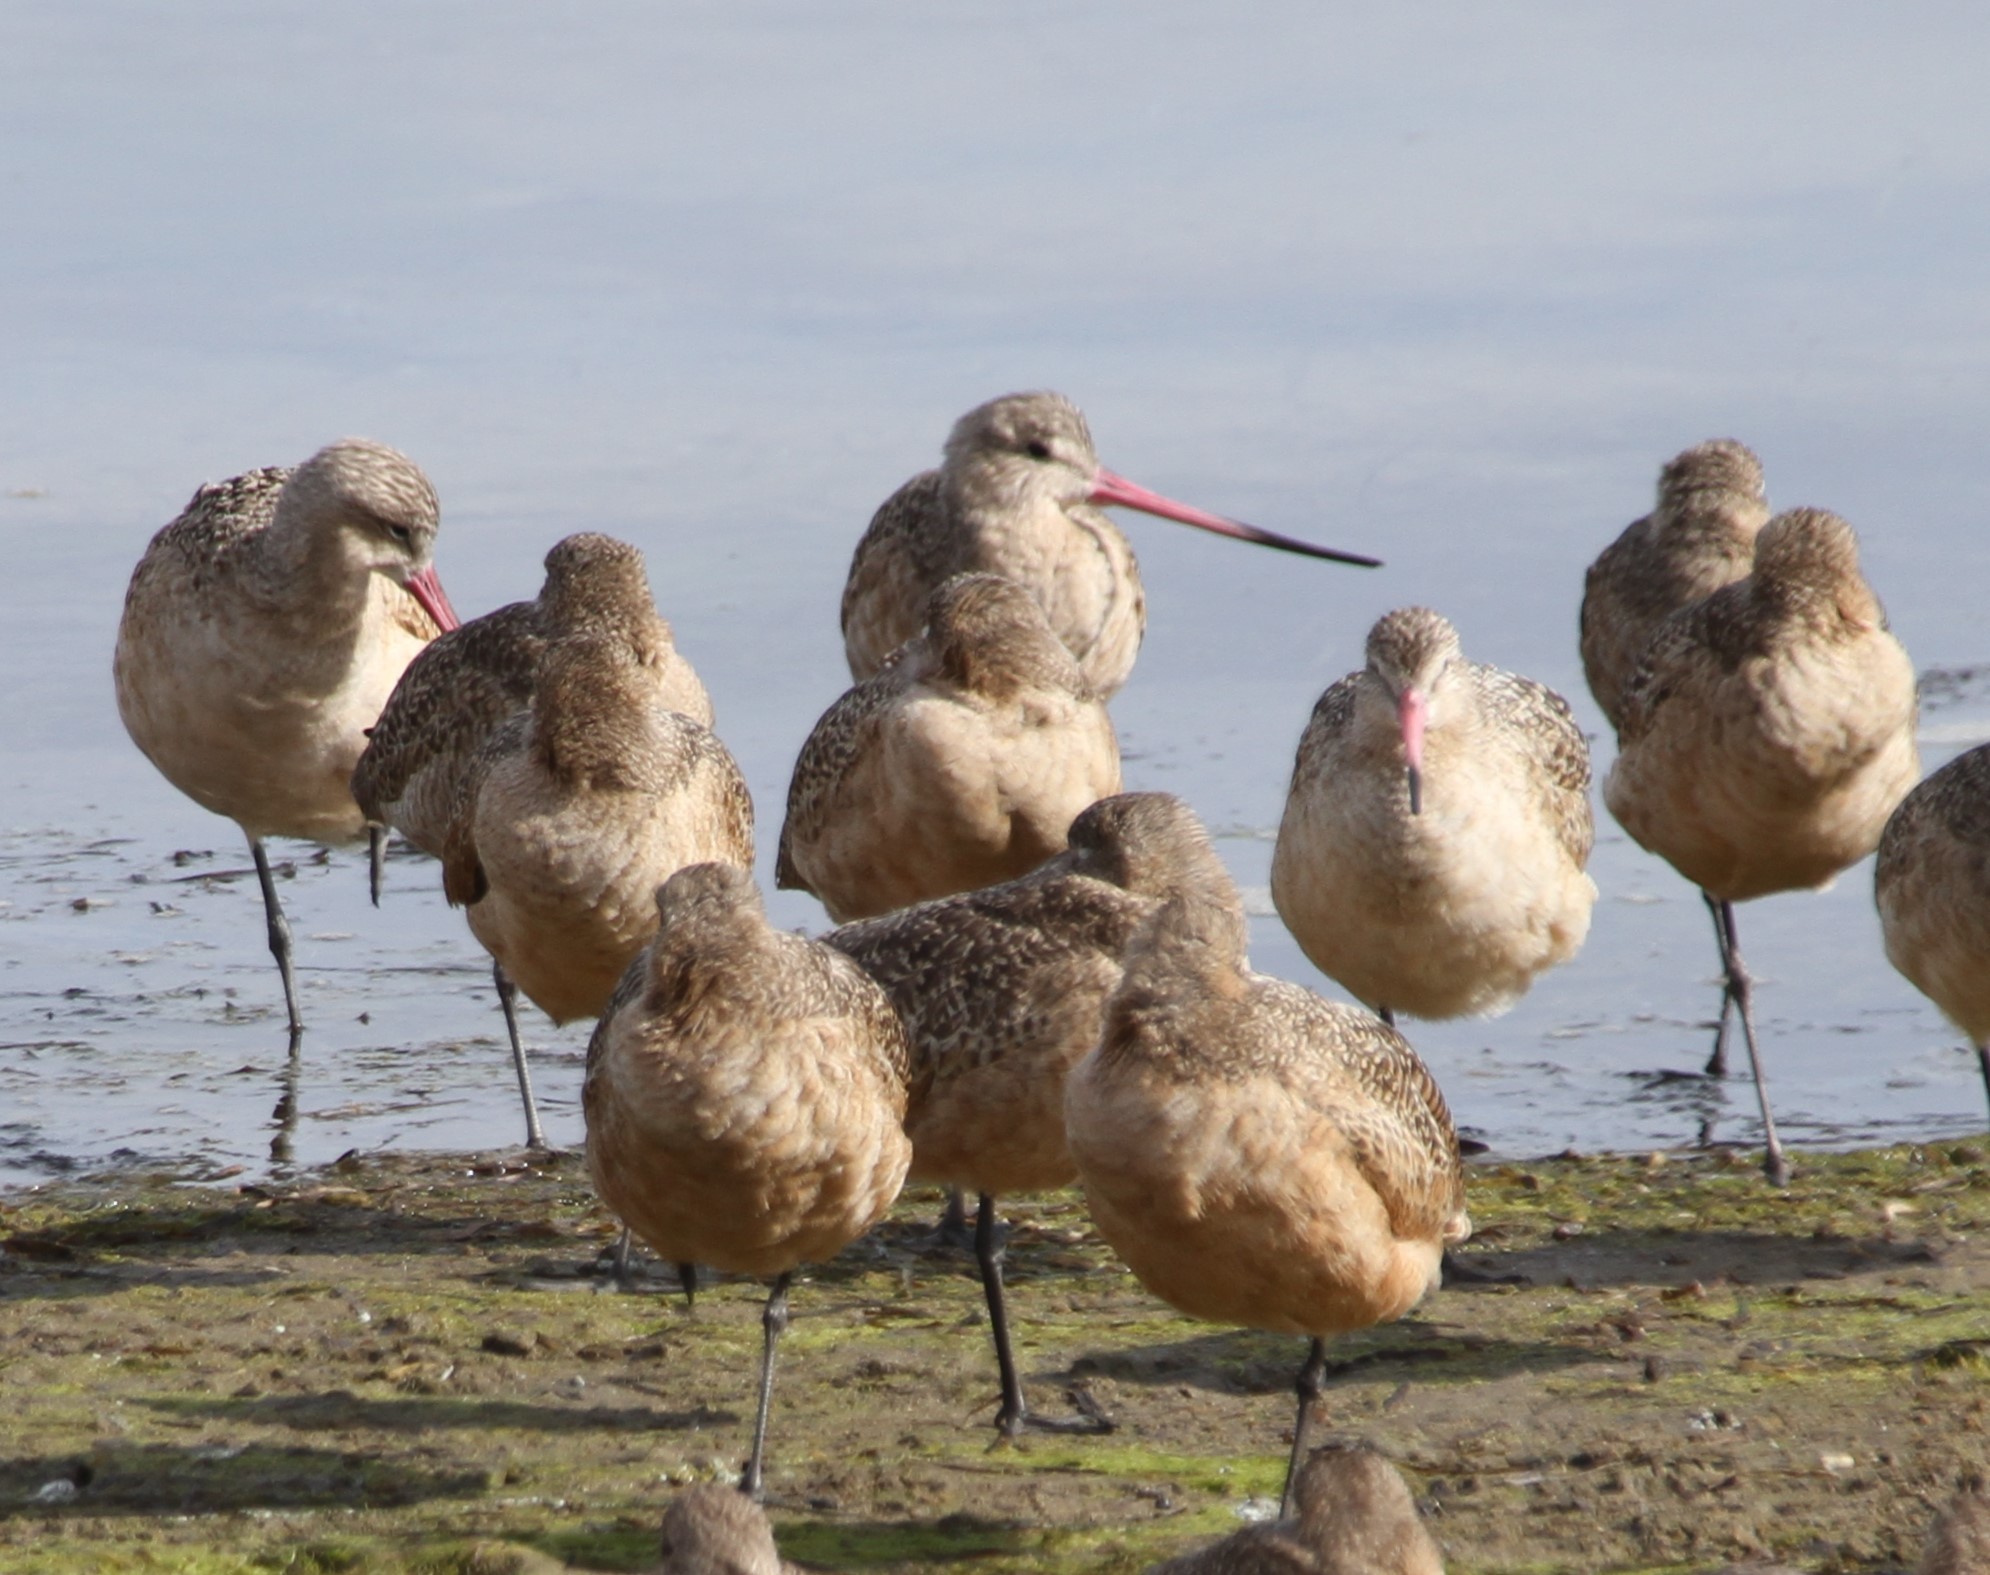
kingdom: Animalia
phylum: Chordata
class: Aves
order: Charadriiformes
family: Scolopacidae
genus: Limosa
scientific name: Limosa fedoa
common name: Marbled godwit
